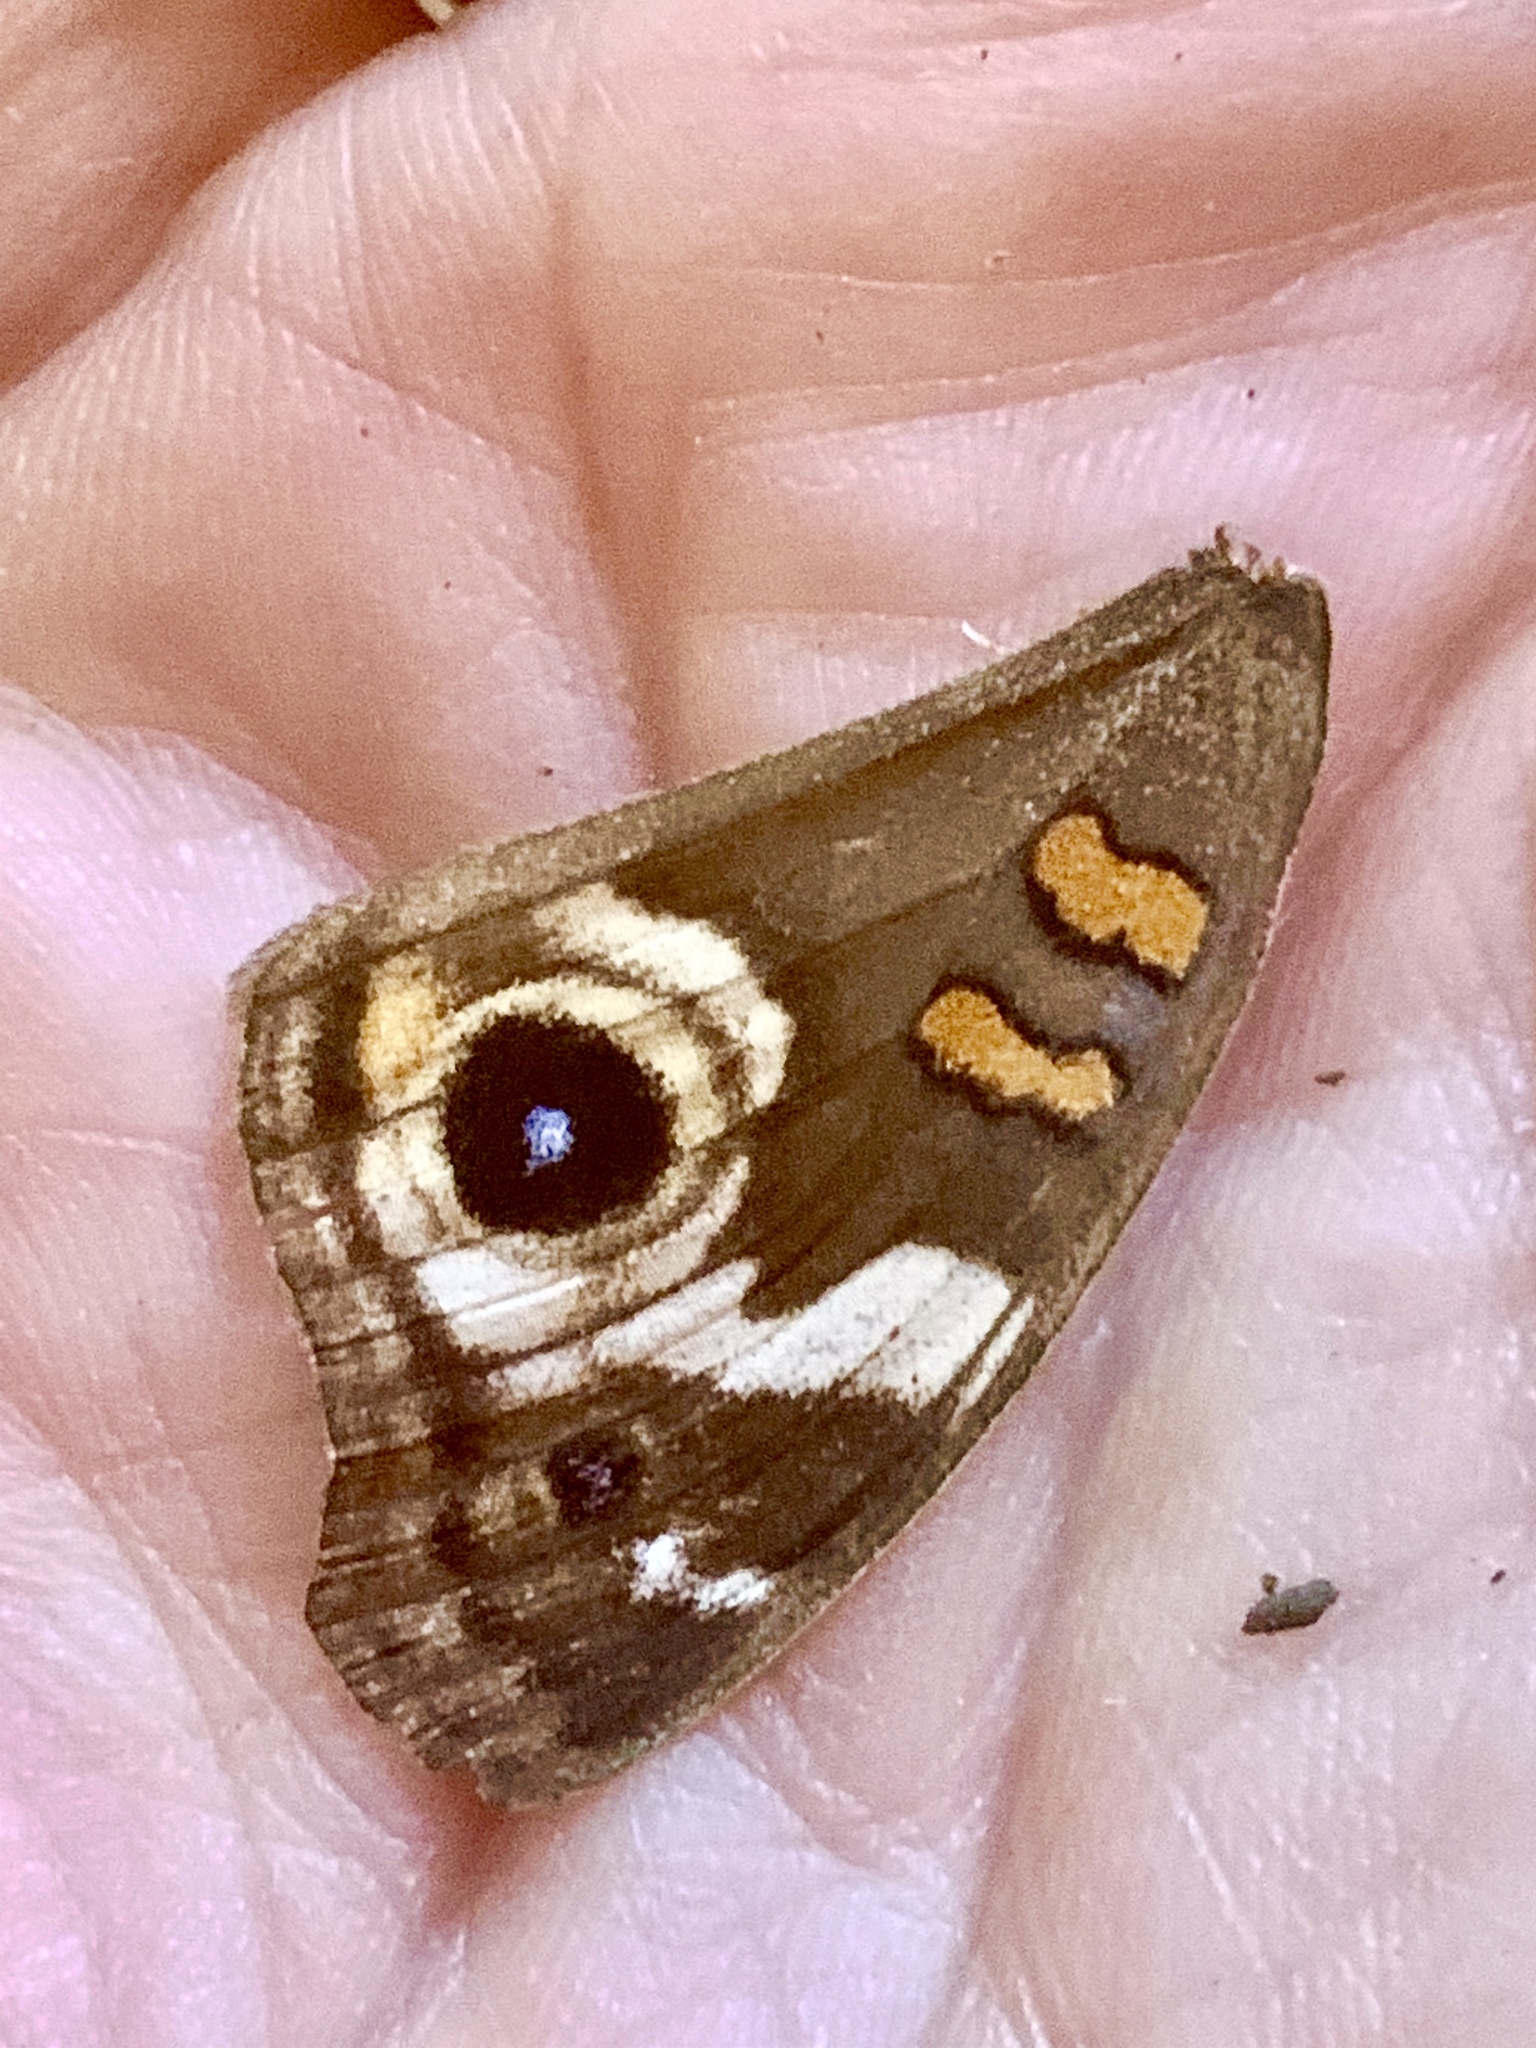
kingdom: Animalia
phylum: Arthropoda
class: Insecta
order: Lepidoptera
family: Nymphalidae
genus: Junonia
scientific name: Junonia grisea
